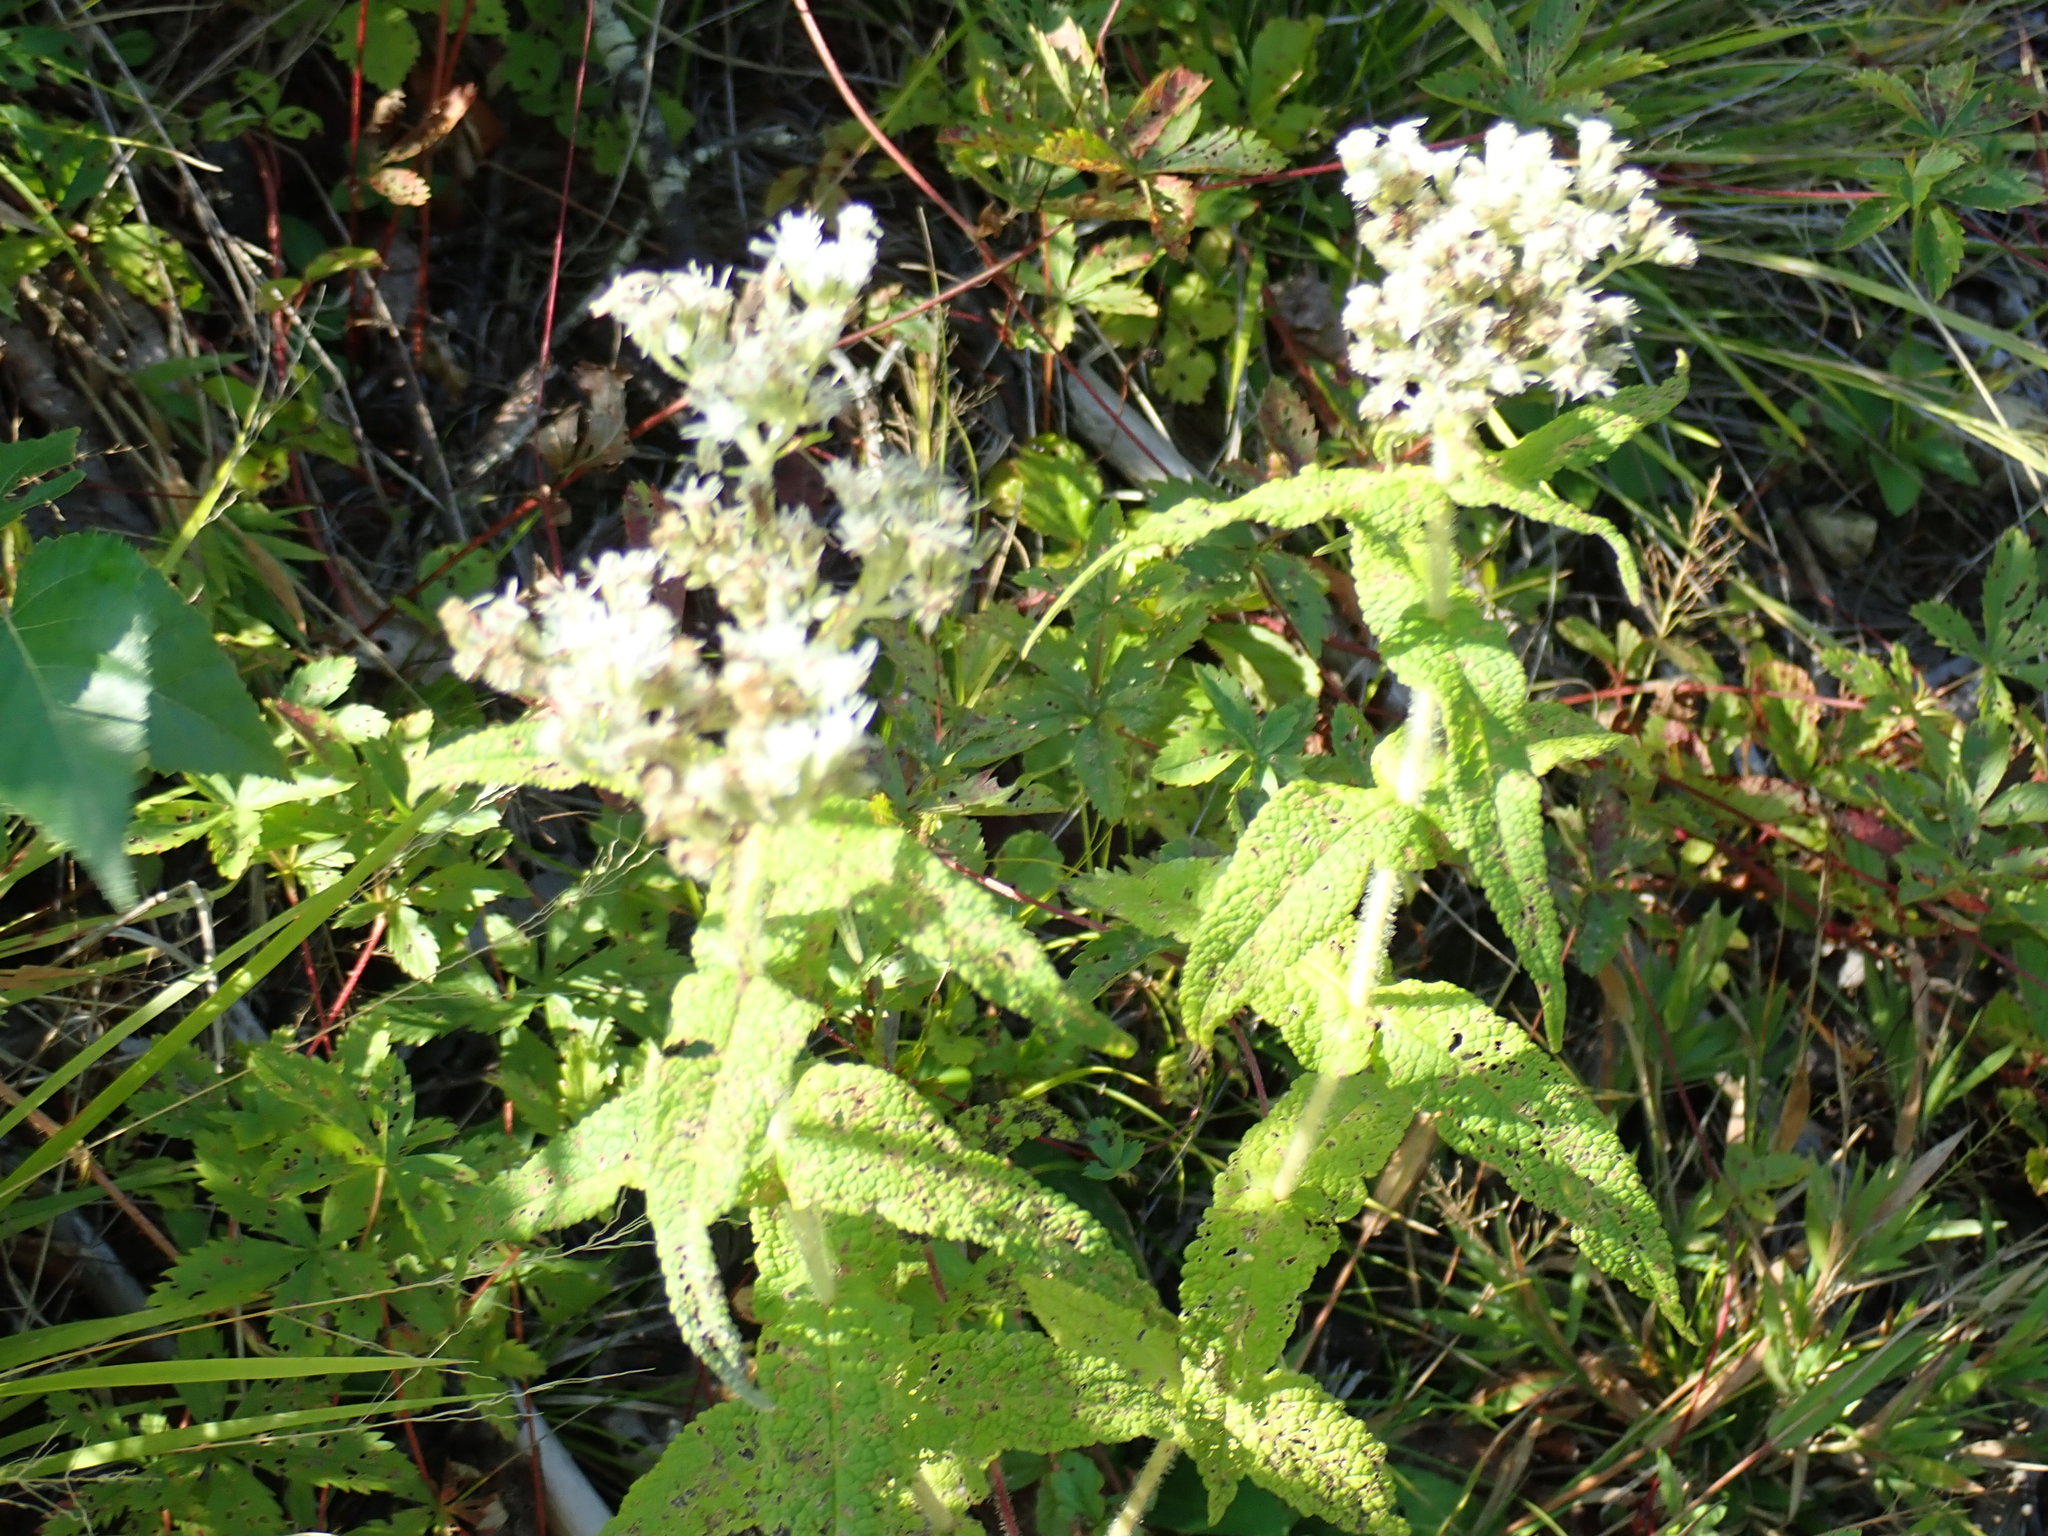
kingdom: Plantae
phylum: Tracheophyta
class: Magnoliopsida
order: Asterales
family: Asteraceae
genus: Eupatorium
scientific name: Eupatorium perfoliatum
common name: Boneset
